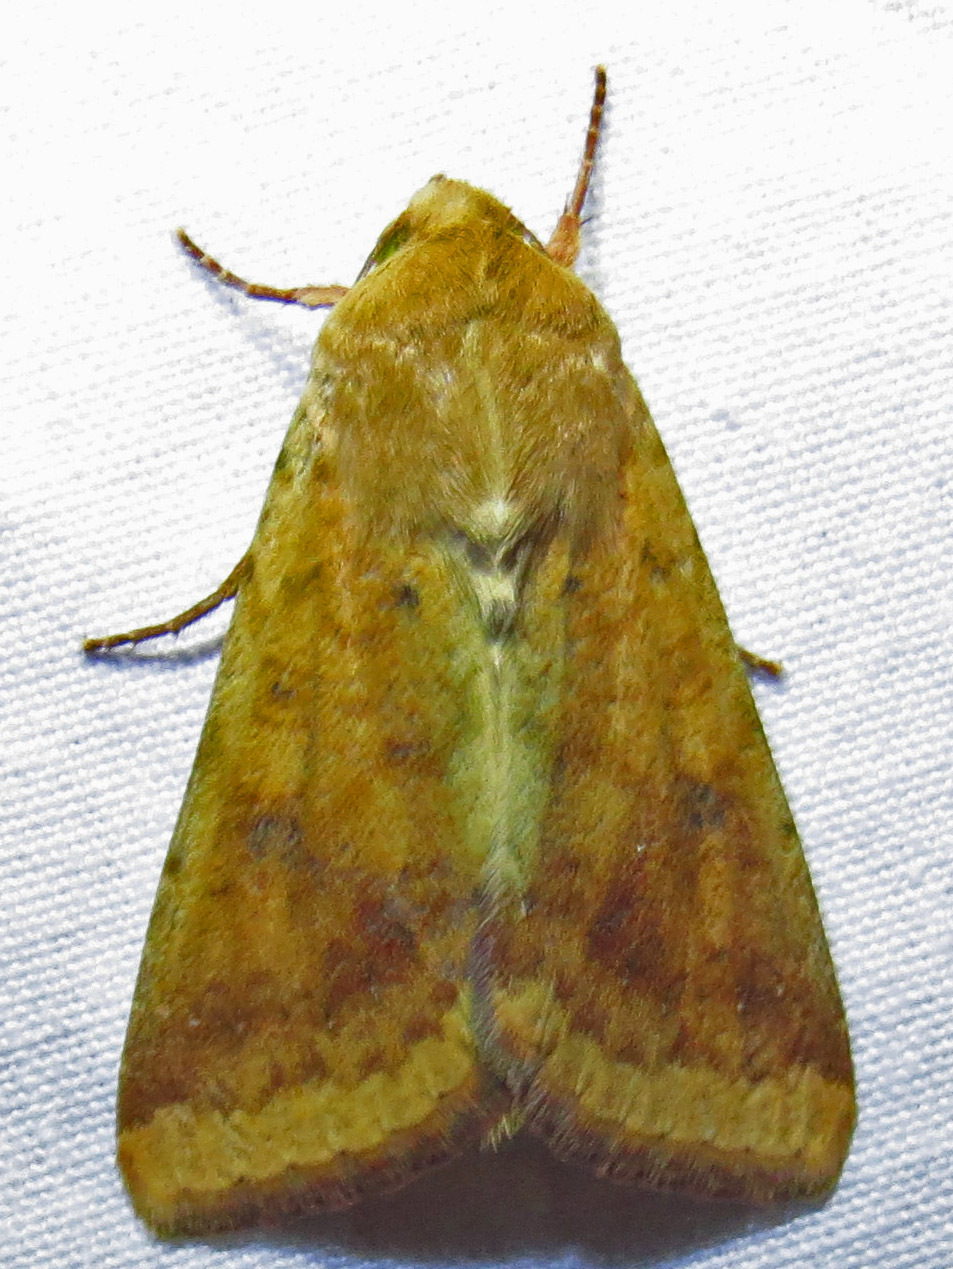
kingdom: Animalia
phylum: Arthropoda
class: Insecta
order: Lepidoptera
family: Noctuidae
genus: Helicoverpa
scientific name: Helicoverpa zea
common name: Bollworm
